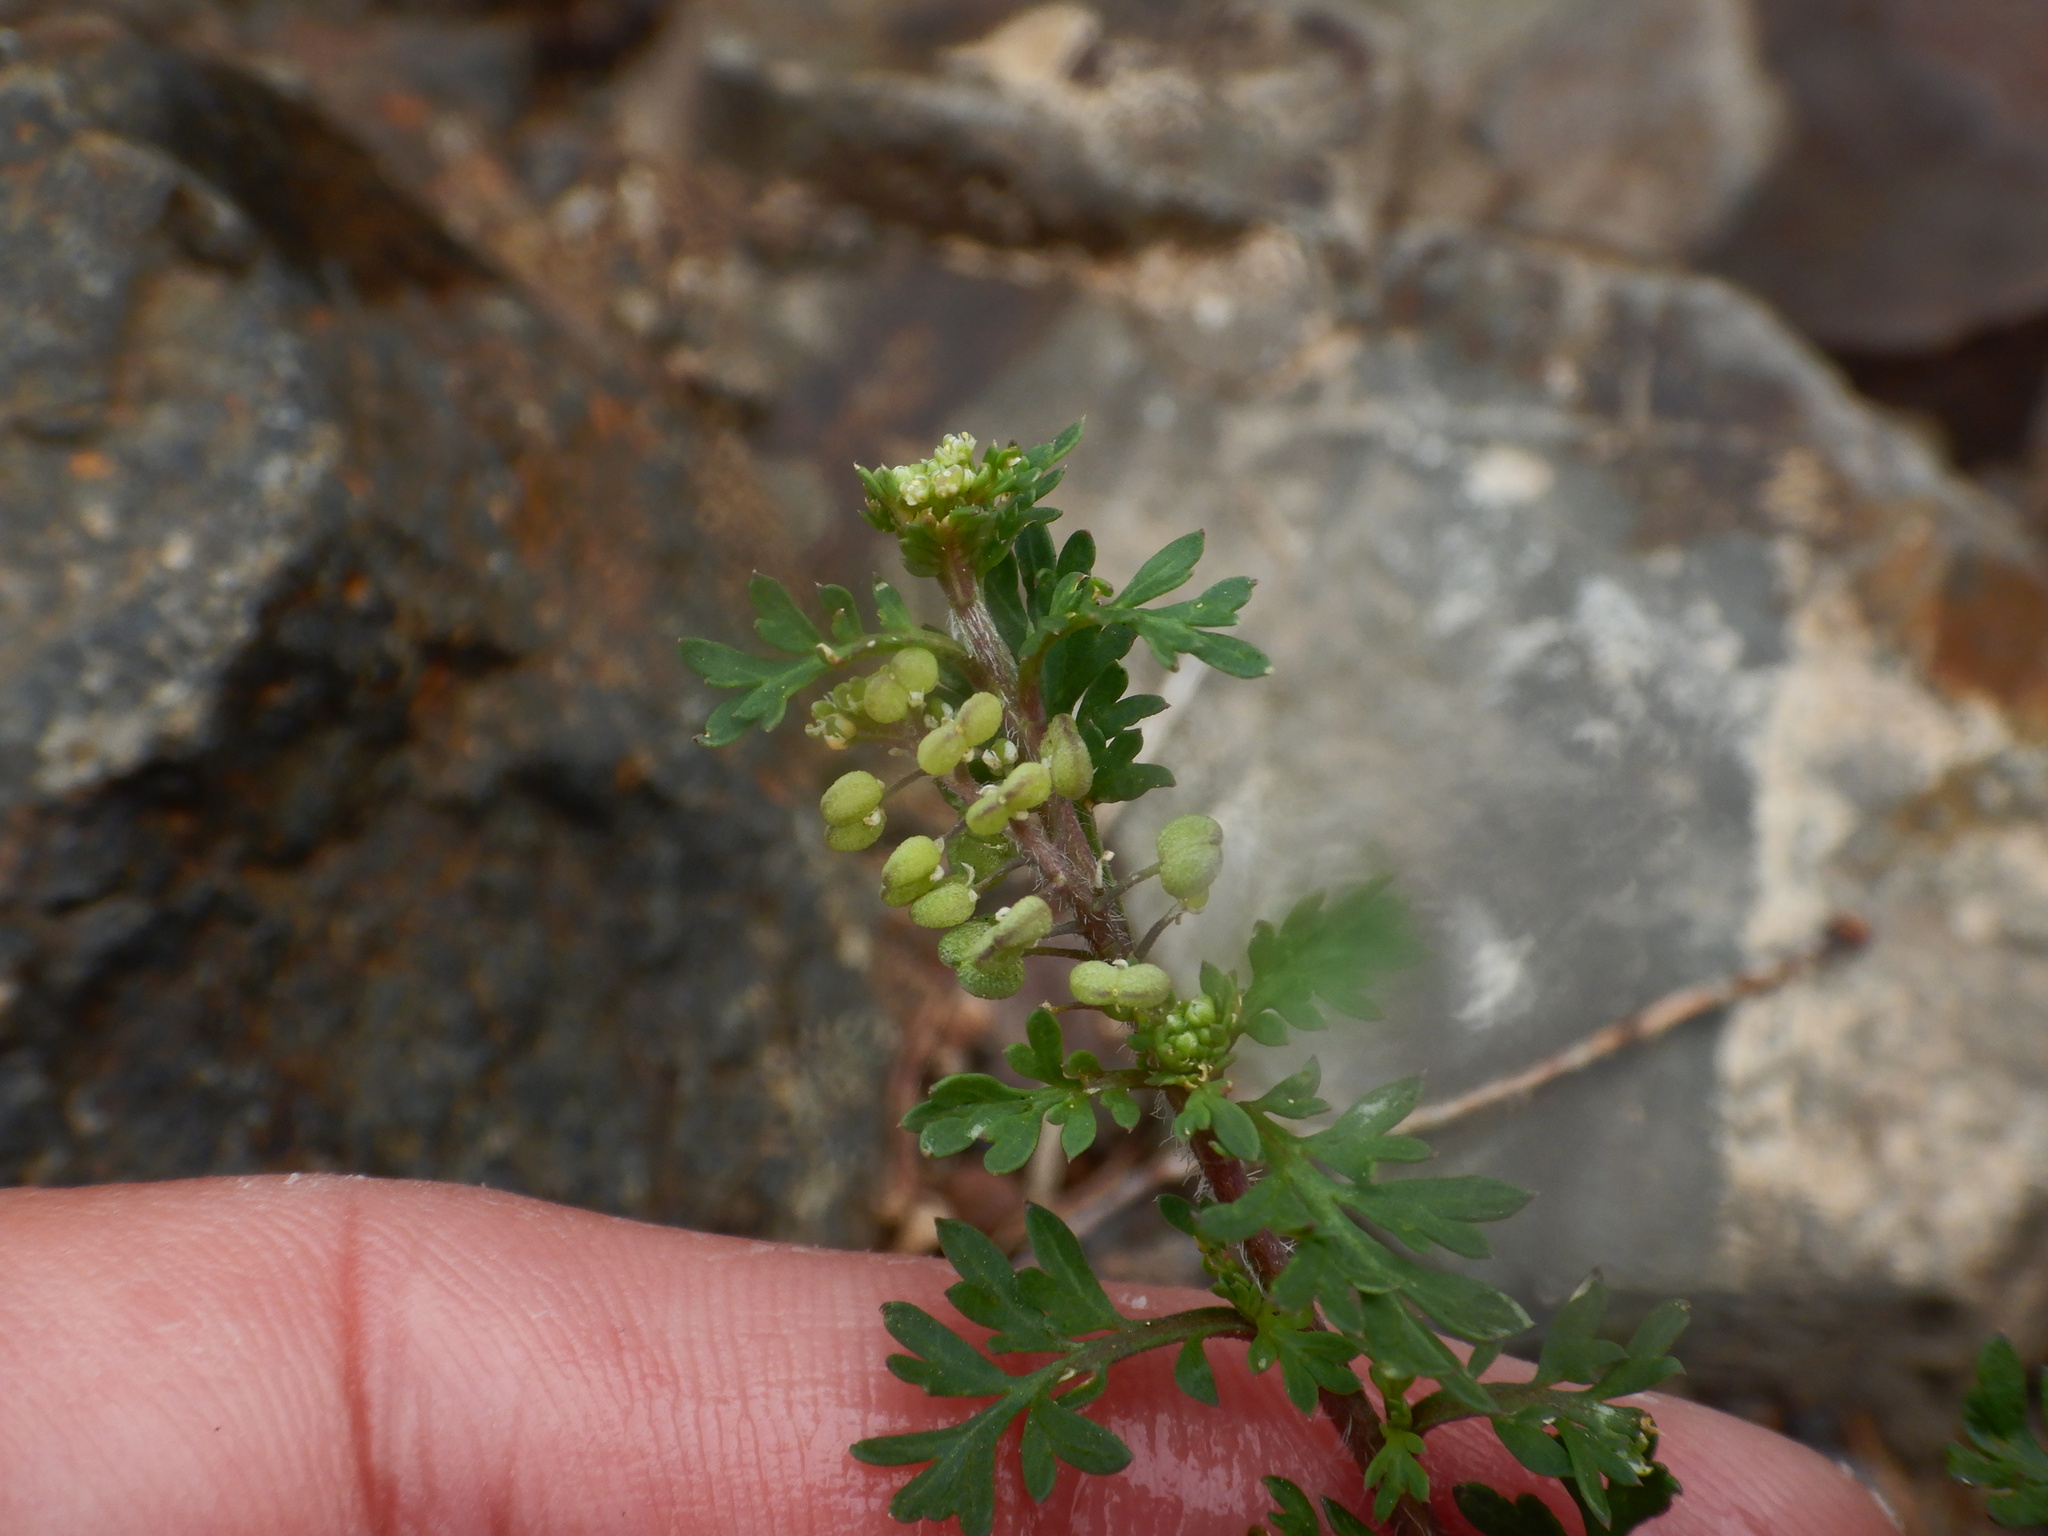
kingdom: Plantae
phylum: Tracheophyta
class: Magnoliopsida
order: Brassicales
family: Brassicaceae
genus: Lepidium
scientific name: Lepidium didymum
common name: Lesser swinecress
